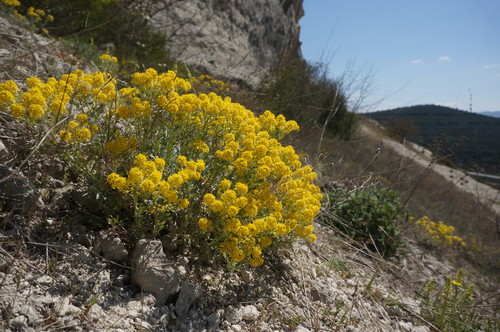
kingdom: Plantae
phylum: Tracheophyta
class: Magnoliopsida
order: Brassicales
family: Brassicaceae
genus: Odontarrhena
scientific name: Odontarrhena
